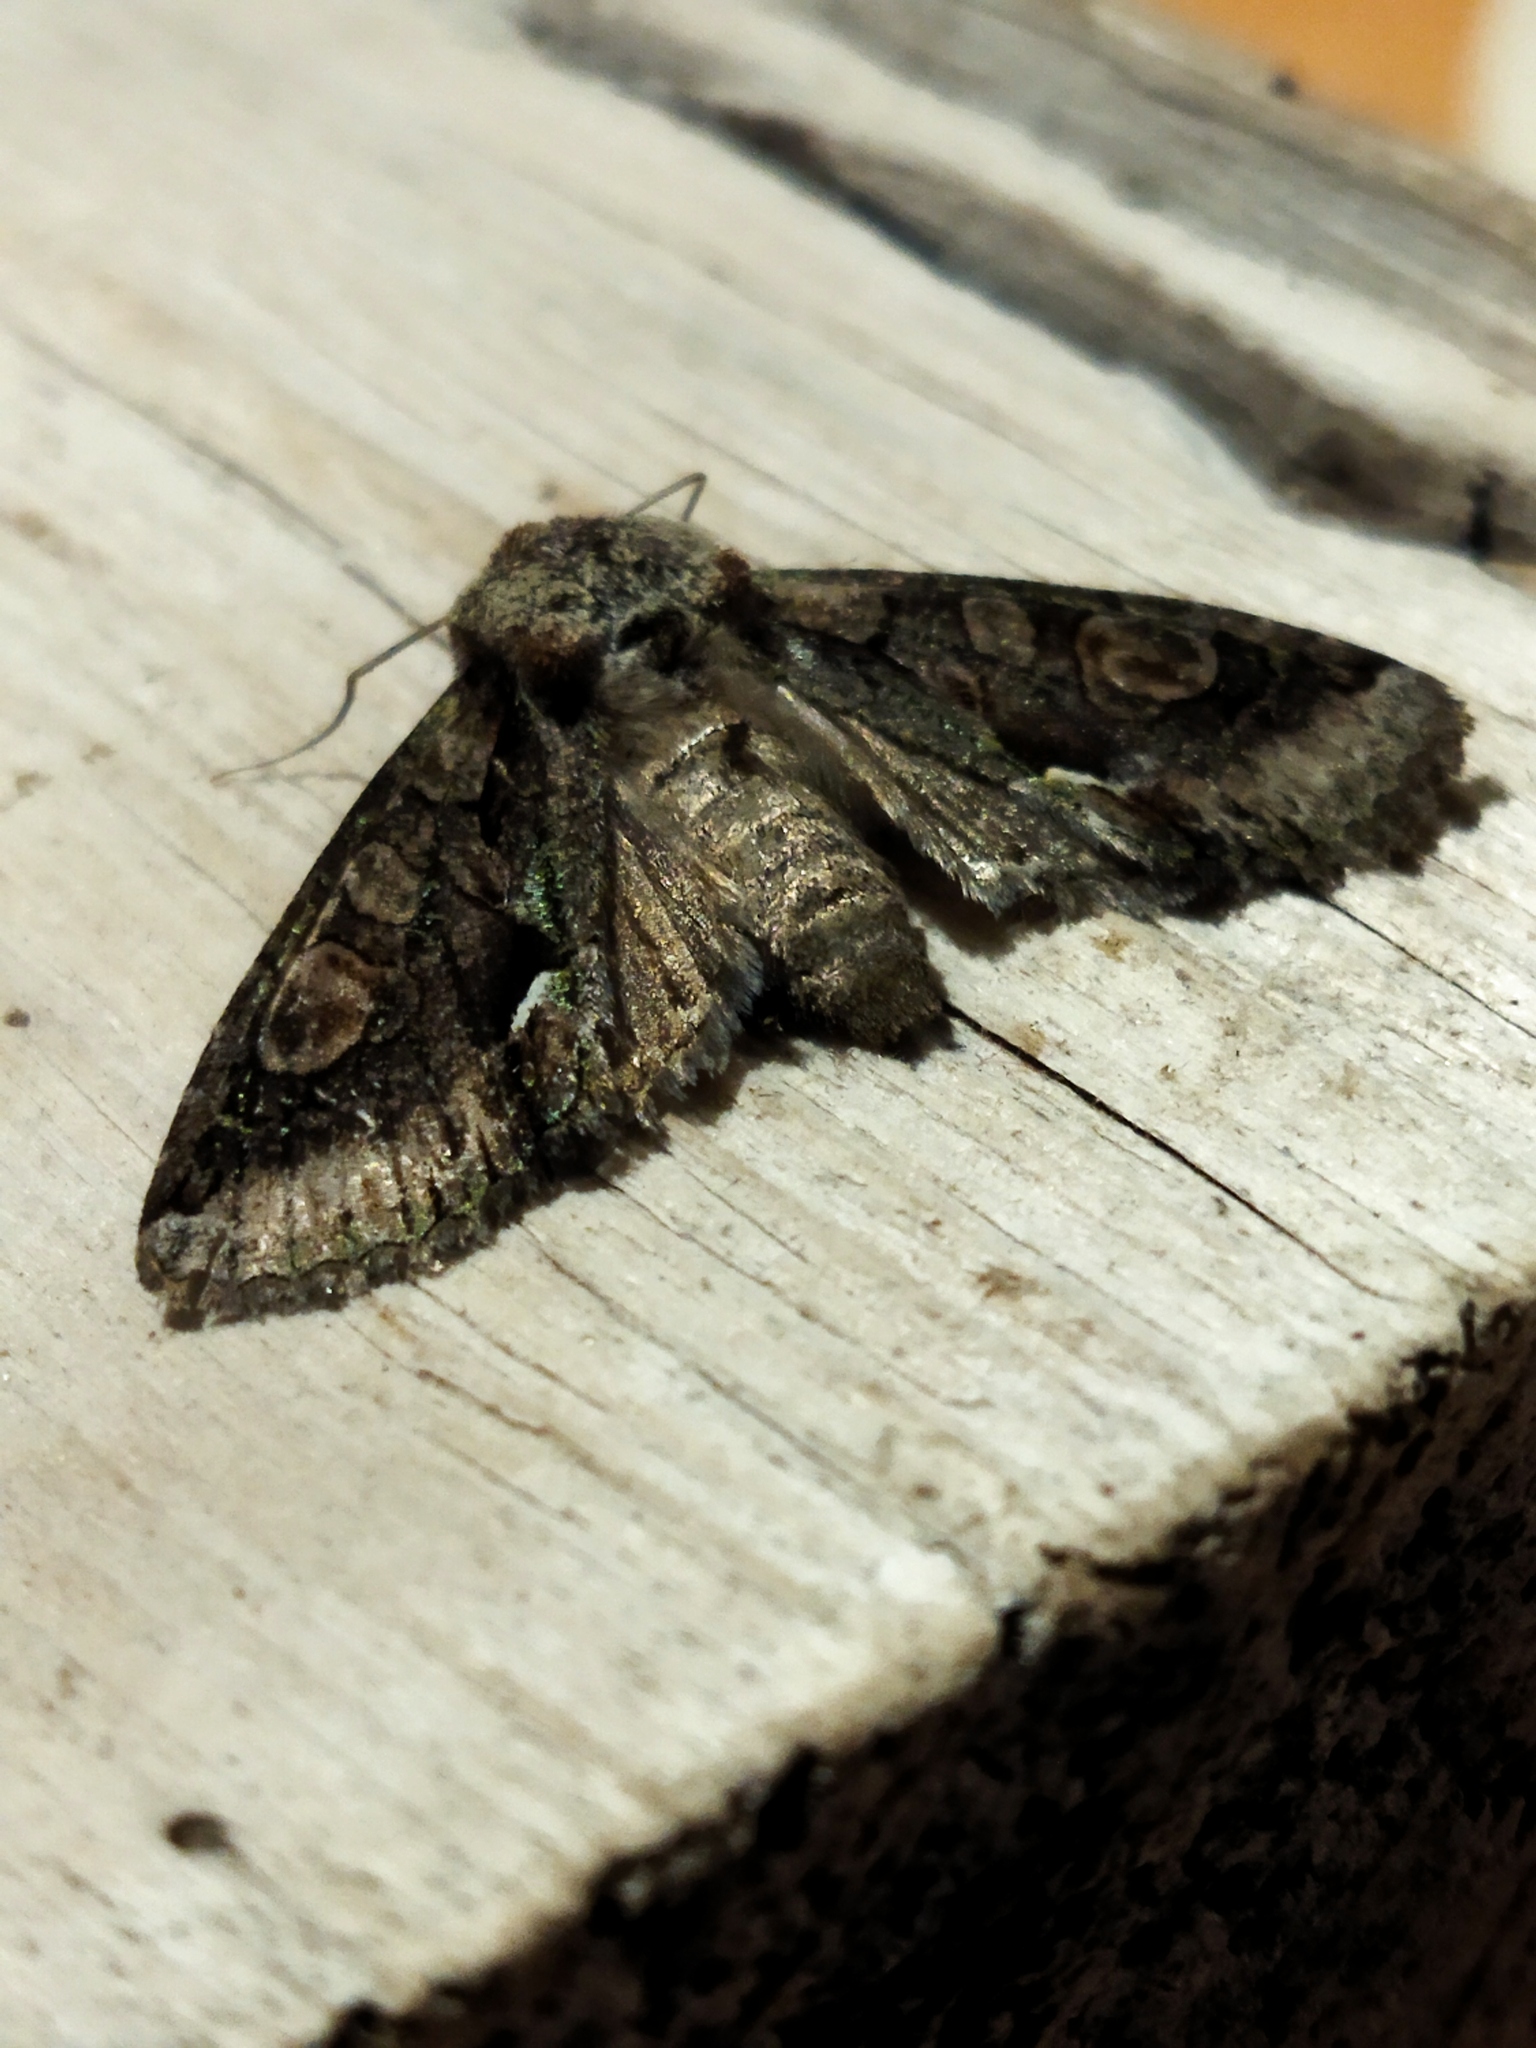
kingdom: Animalia
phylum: Arthropoda
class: Insecta
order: Lepidoptera
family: Noctuidae
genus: Allophyes
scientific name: Allophyes oxyacanthae
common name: Green-brindled crescent
